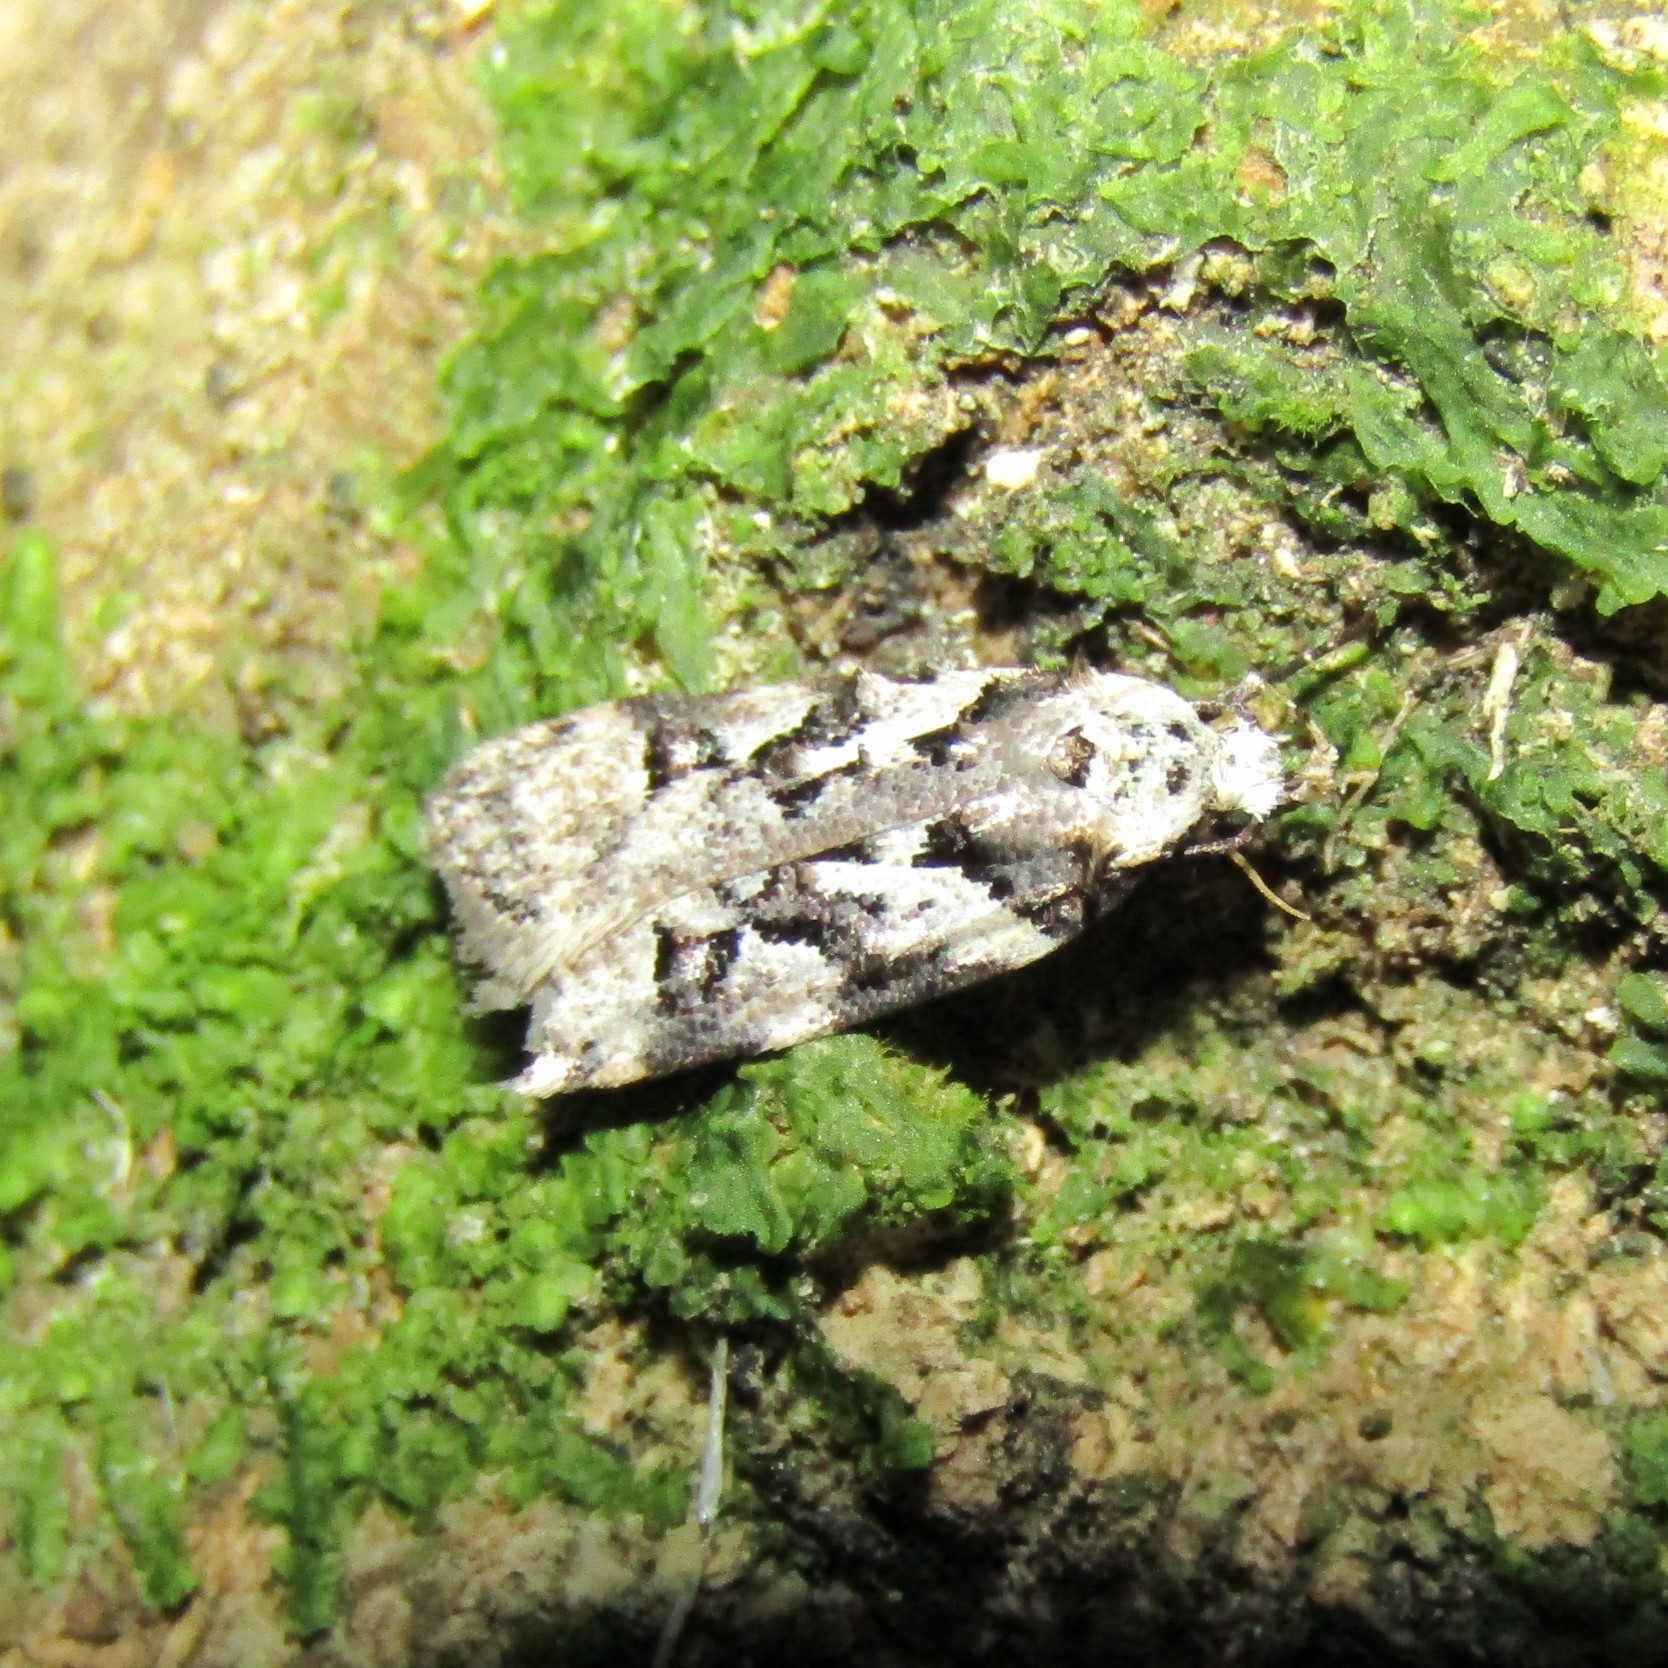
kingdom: Animalia
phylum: Arthropoda
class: Insecta
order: Lepidoptera
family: Oecophoridae
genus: Izatha
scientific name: Izatha epiphanes
